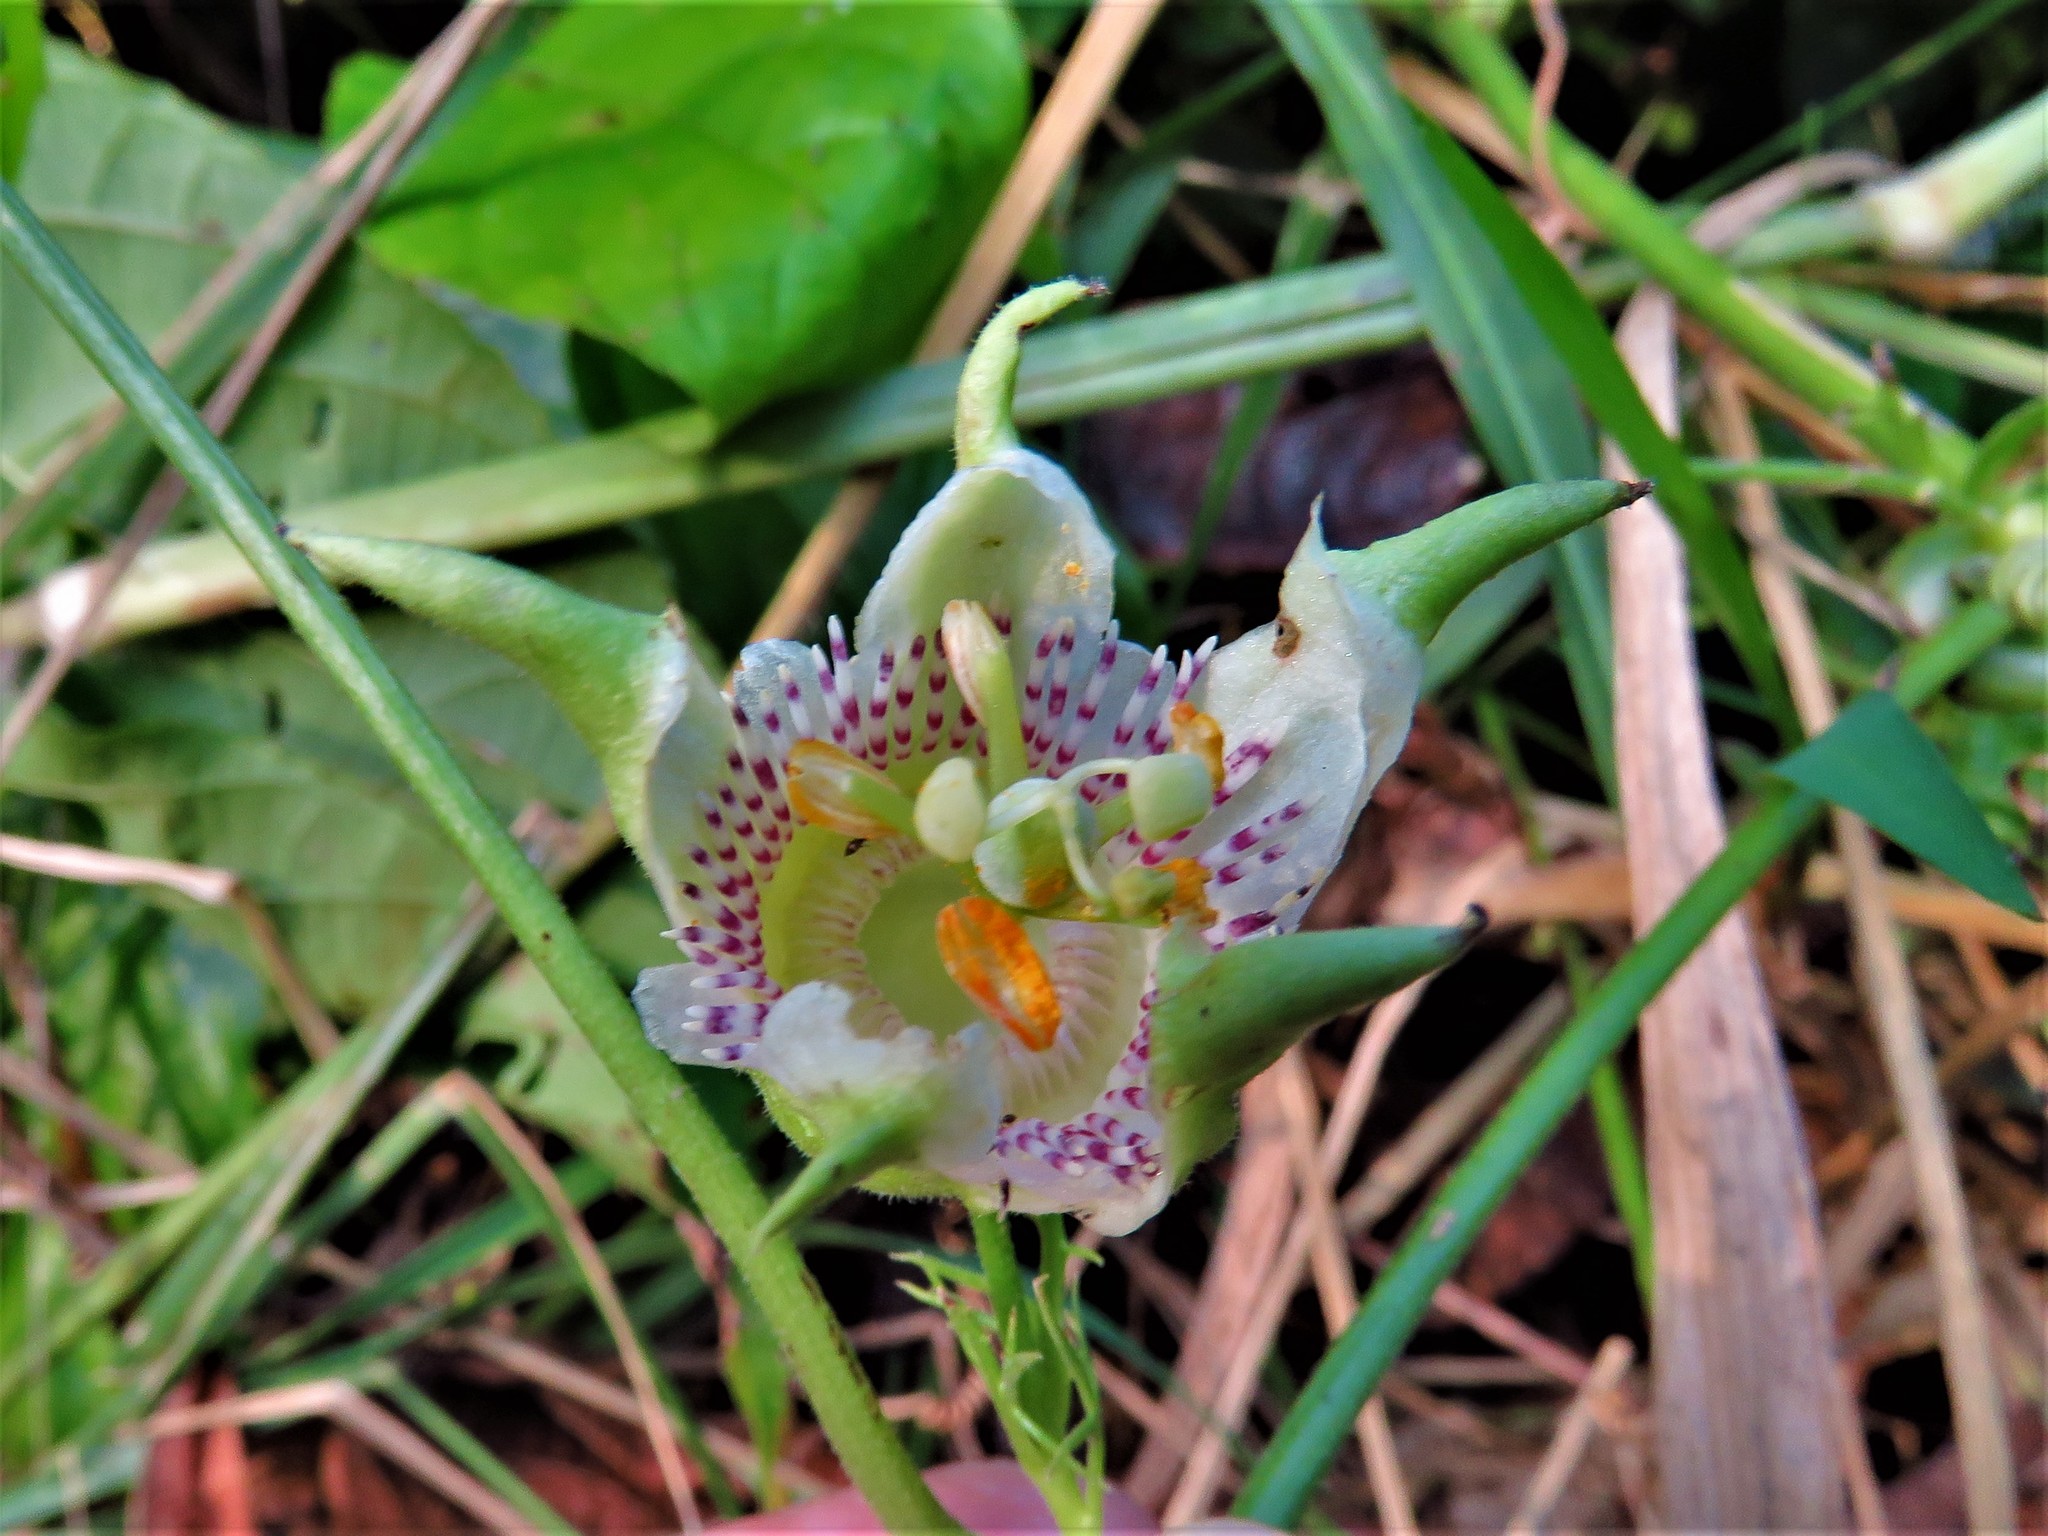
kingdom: Plantae
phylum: Tracheophyta
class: Magnoliopsida
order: Malpighiales
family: Passifloraceae
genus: Passiflora
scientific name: Passiflora adenopoda
